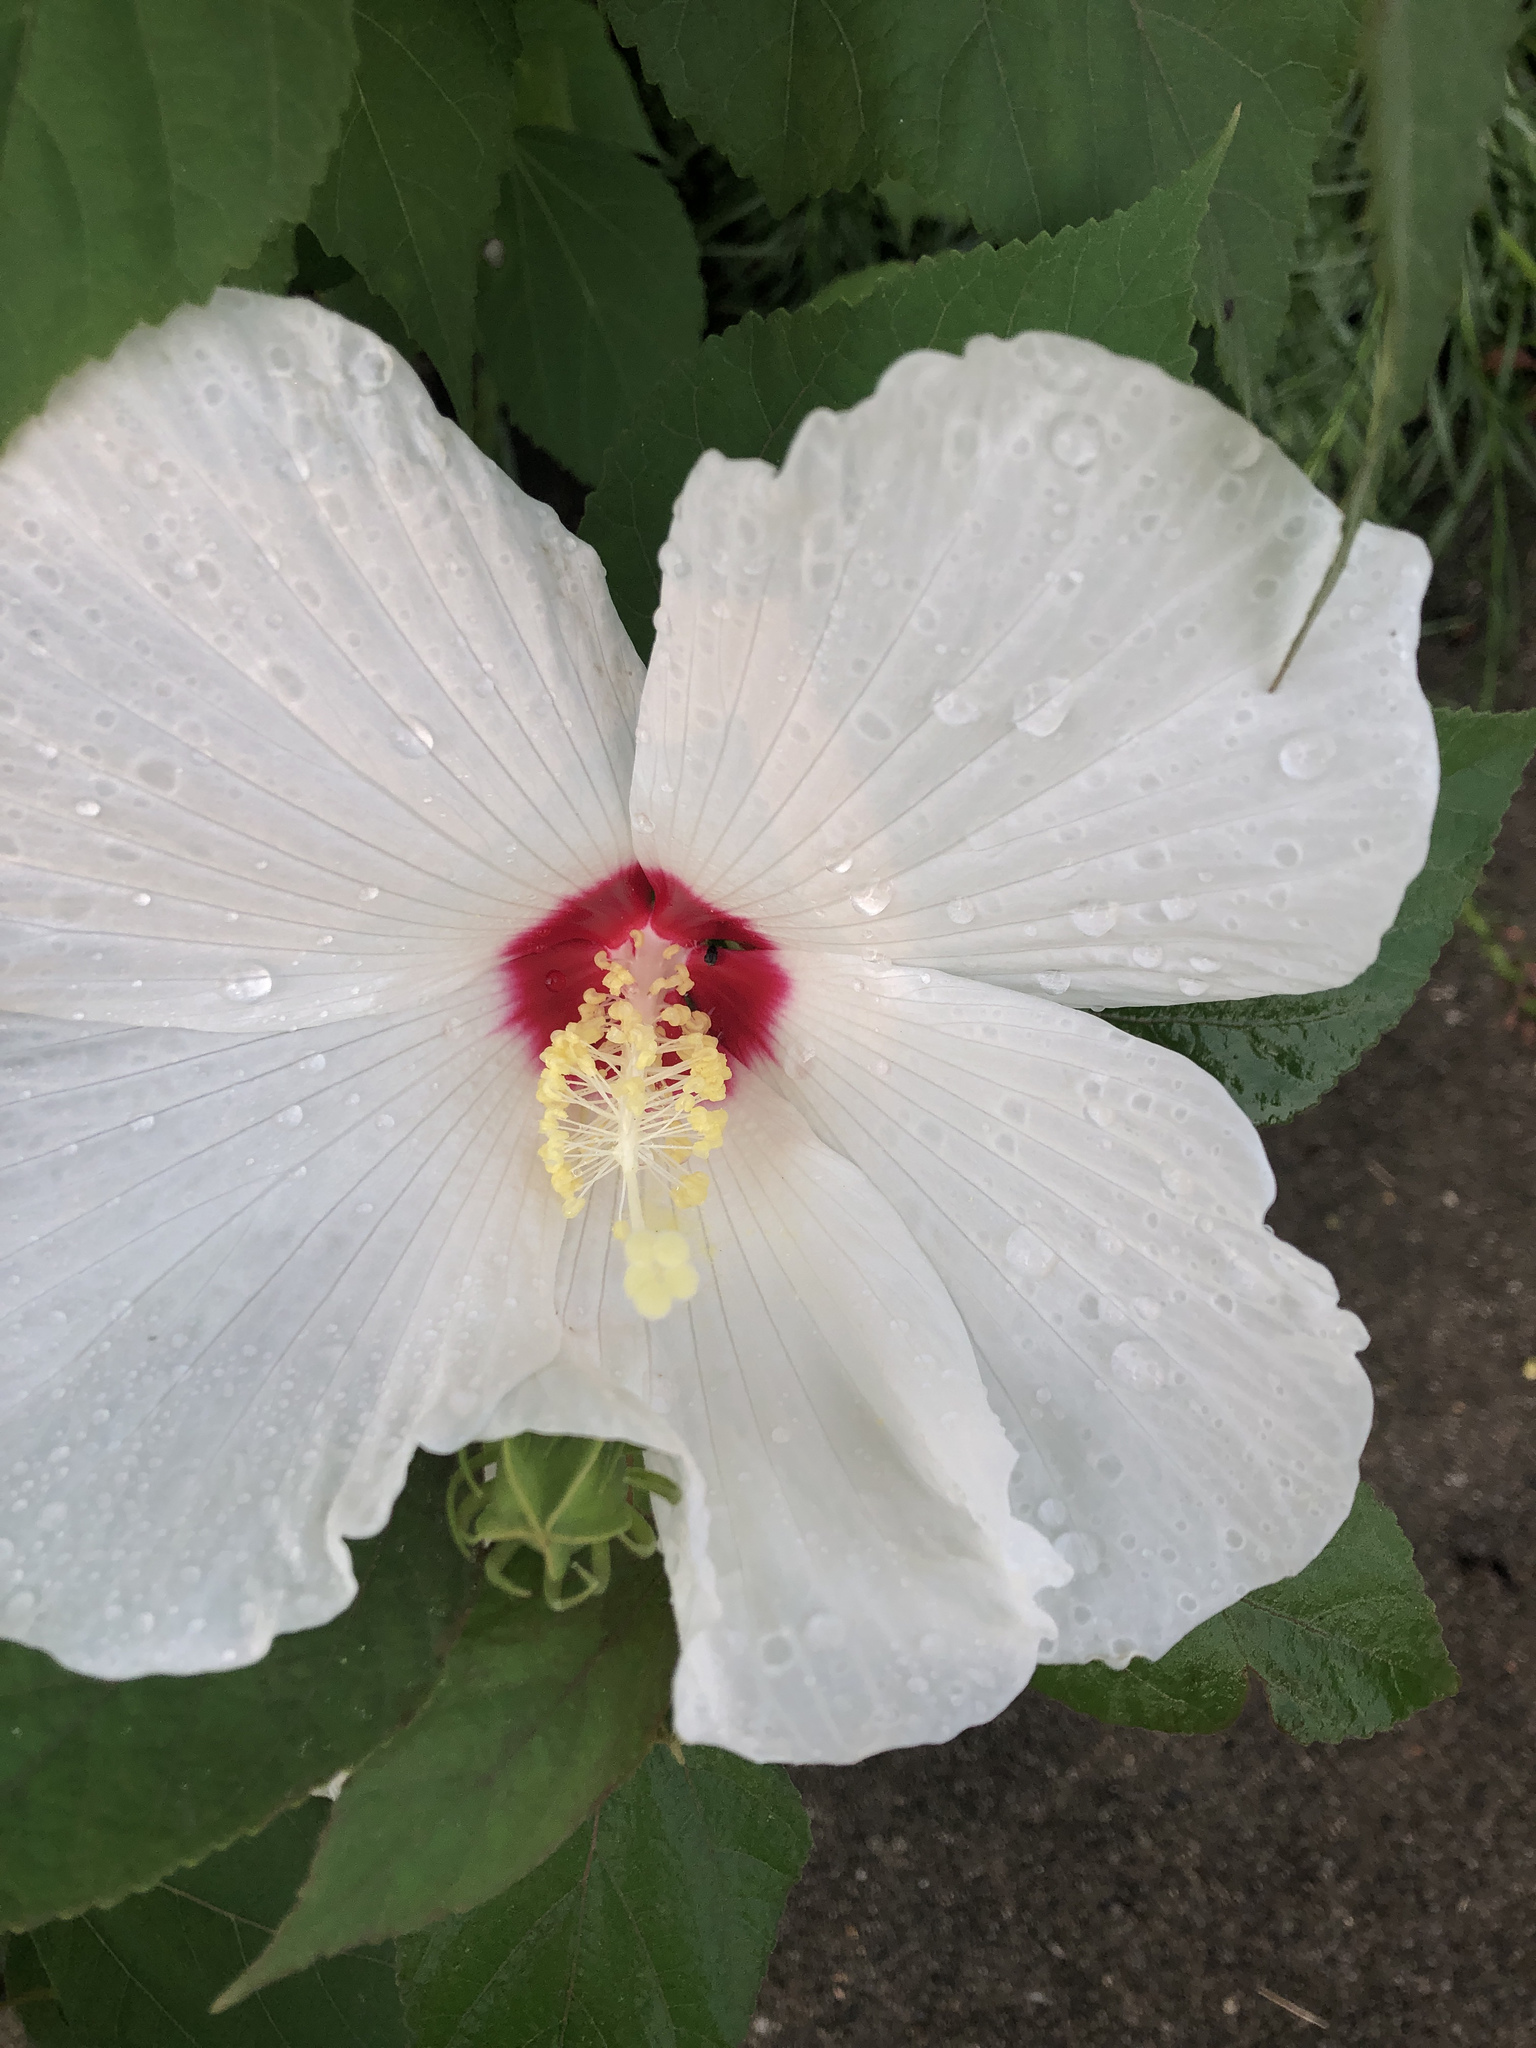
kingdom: Plantae
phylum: Tracheophyta
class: Magnoliopsida
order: Malvales
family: Malvaceae
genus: Hibiscus
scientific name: Hibiscus moscheutos
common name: Common rose-mallow
